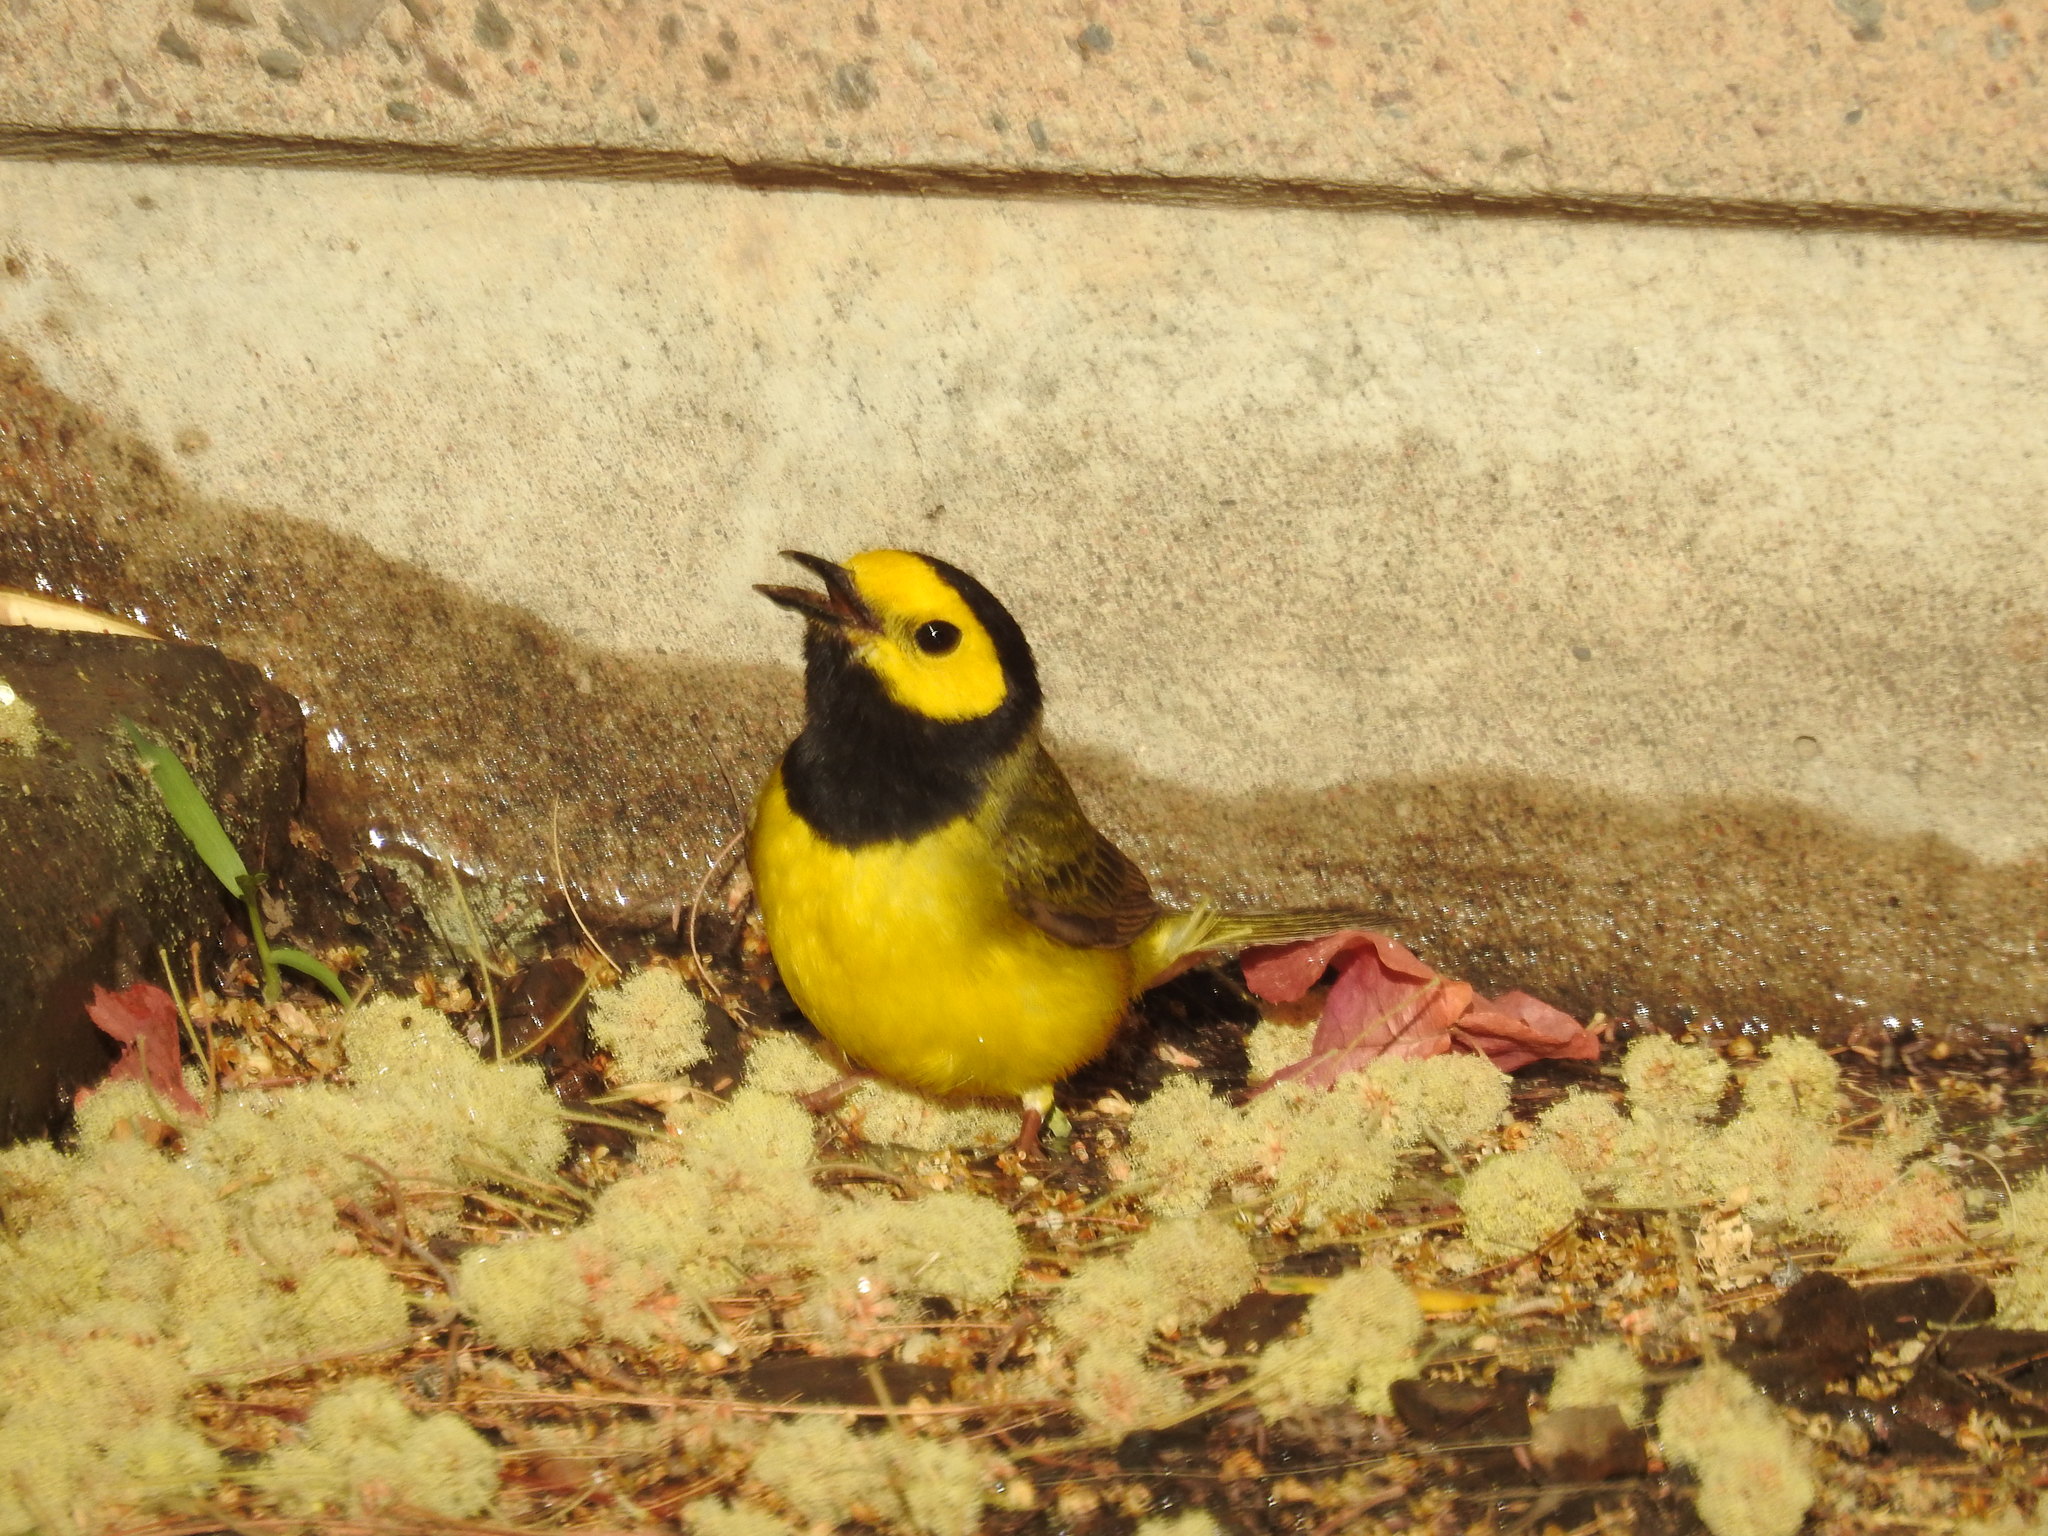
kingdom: Animalia
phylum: Chordata
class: Aves
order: Passeriformes
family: Parulidae
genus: Setophaga
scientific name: Setophaga citrina
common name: Hooded warbler
